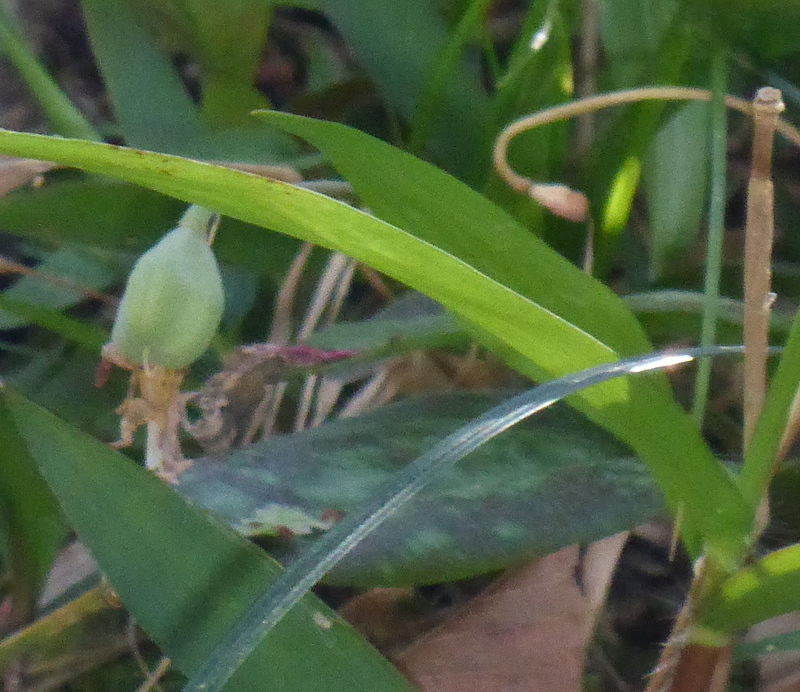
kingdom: Plantae
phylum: Tracheophyta
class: Liliopsida
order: Liliales
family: Liliaceae
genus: Erythronium
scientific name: Erythronium umbilicatum
